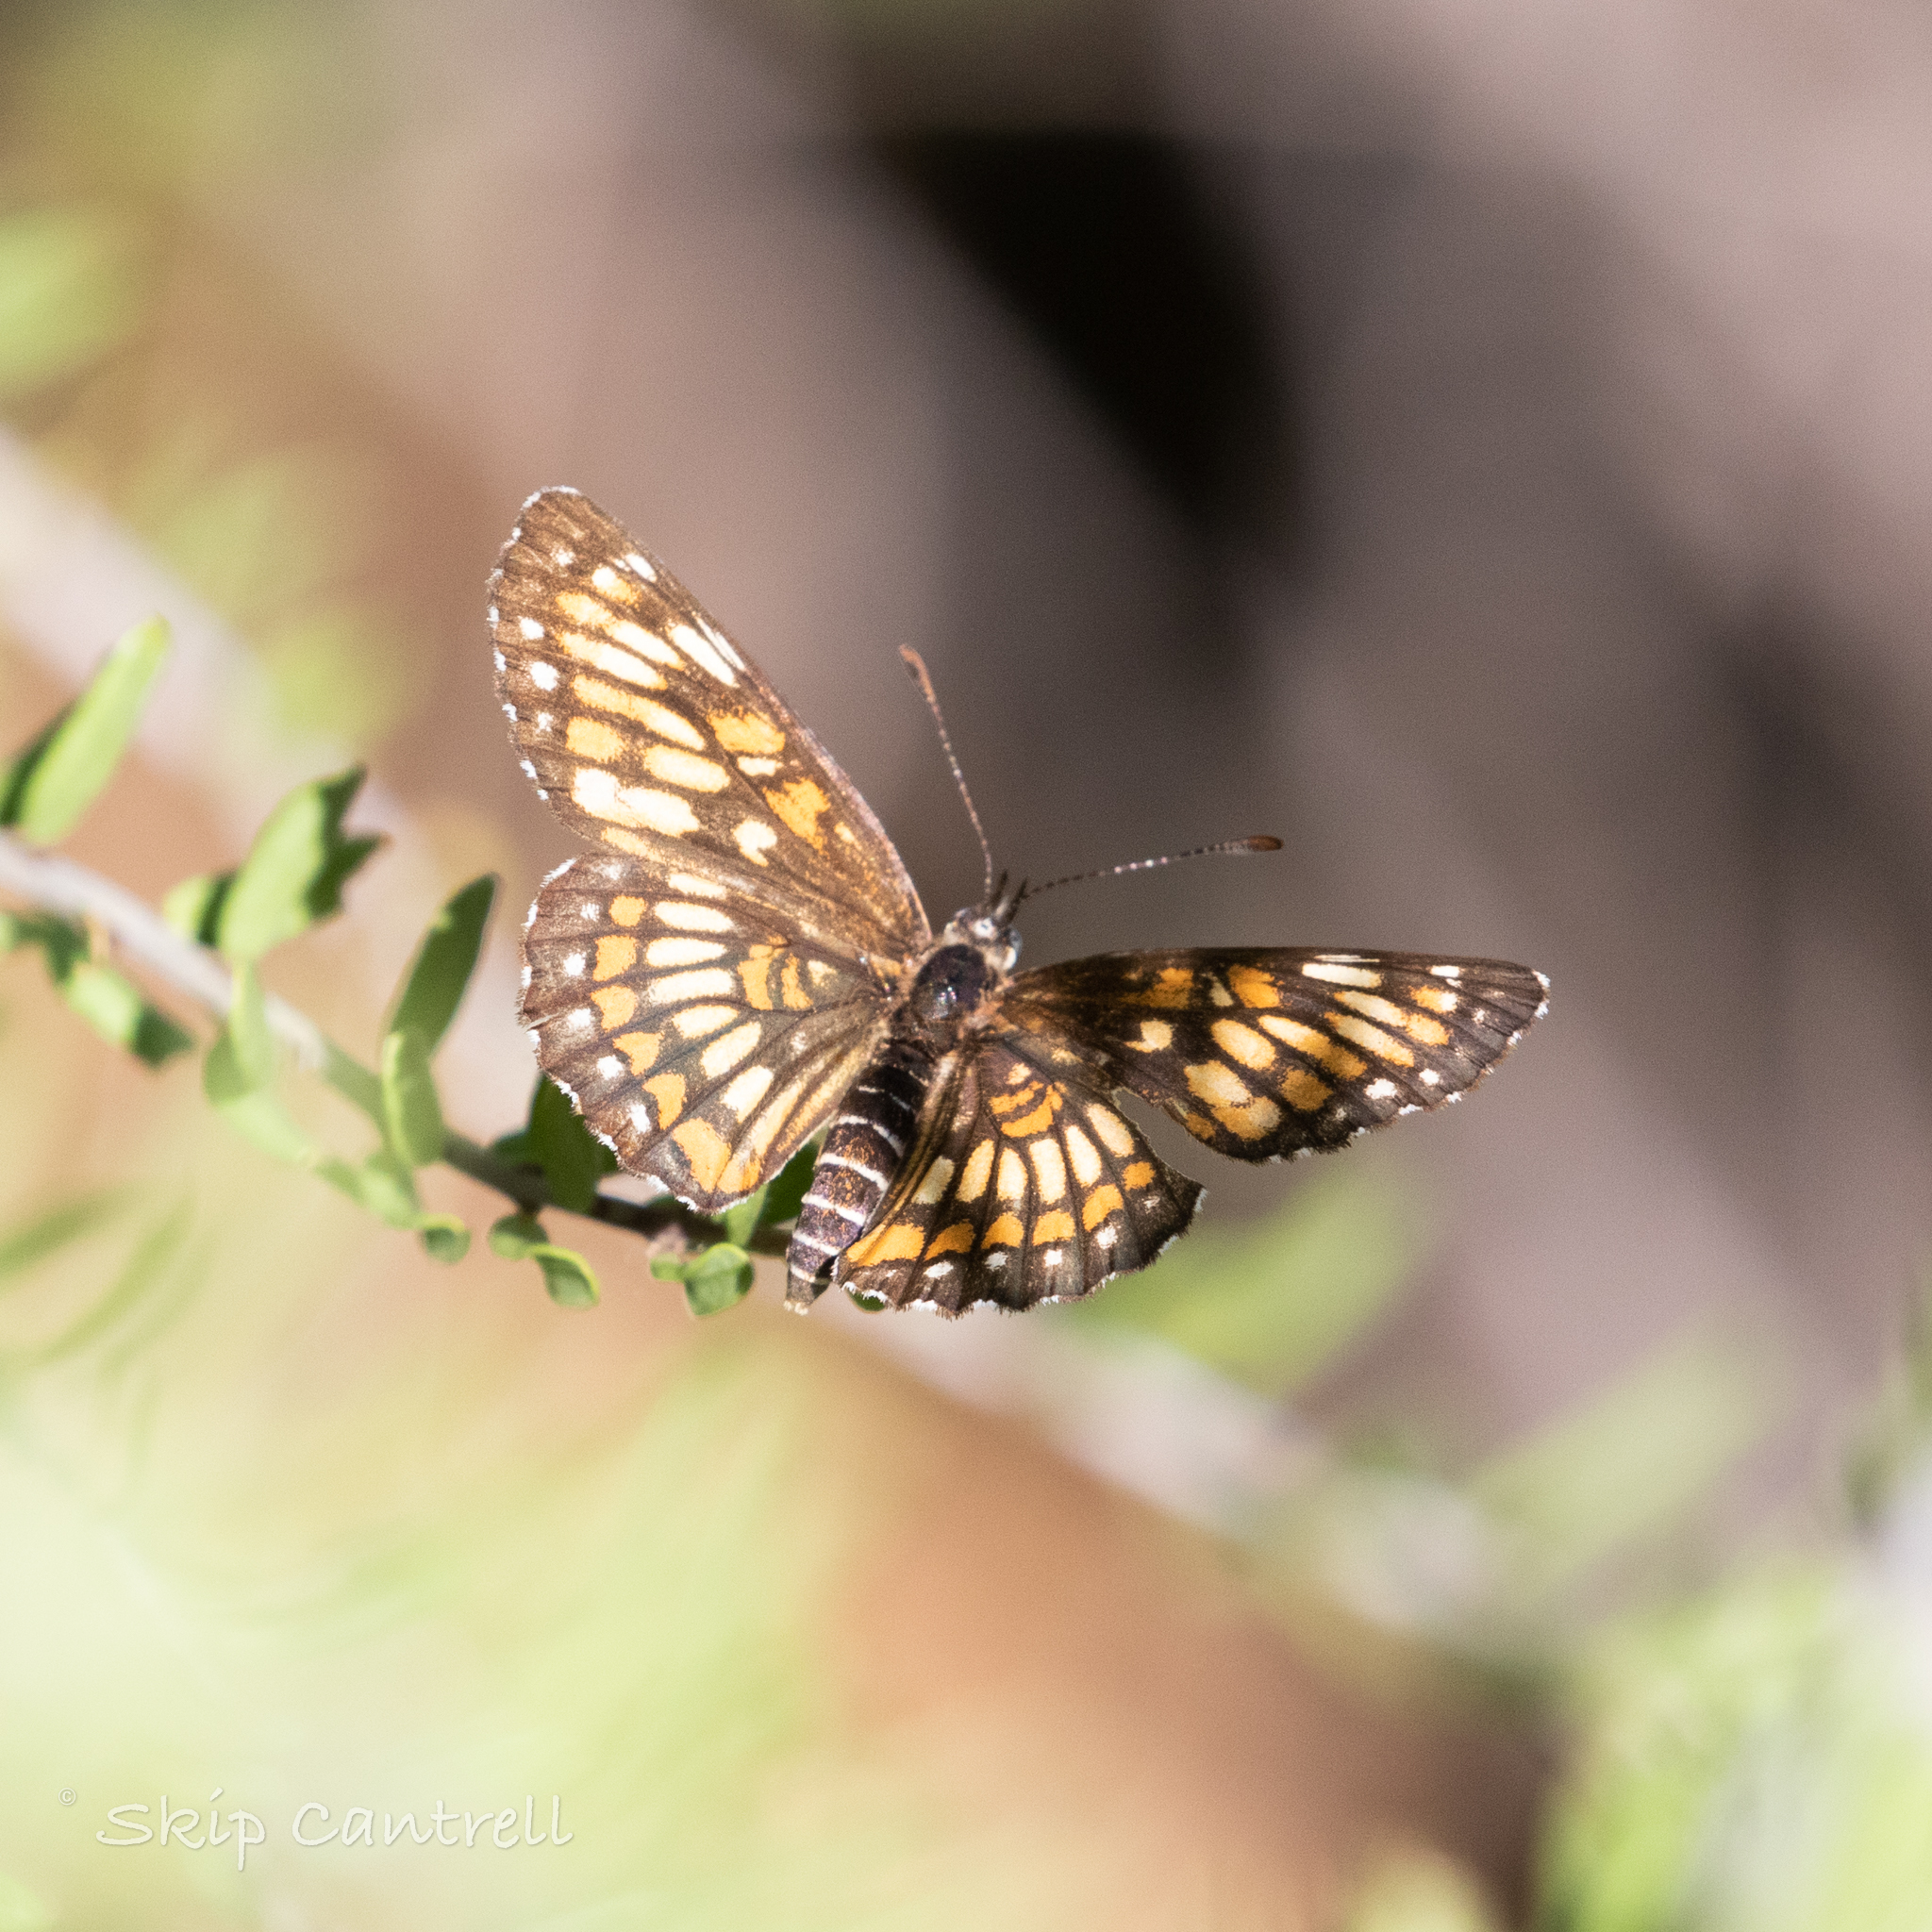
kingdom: Animalia
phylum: Arthropoda
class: Insecta
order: Lepidoptera
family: Nymphalidae
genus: Thessalia
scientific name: Thessalia theona
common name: Nymphalid moth
